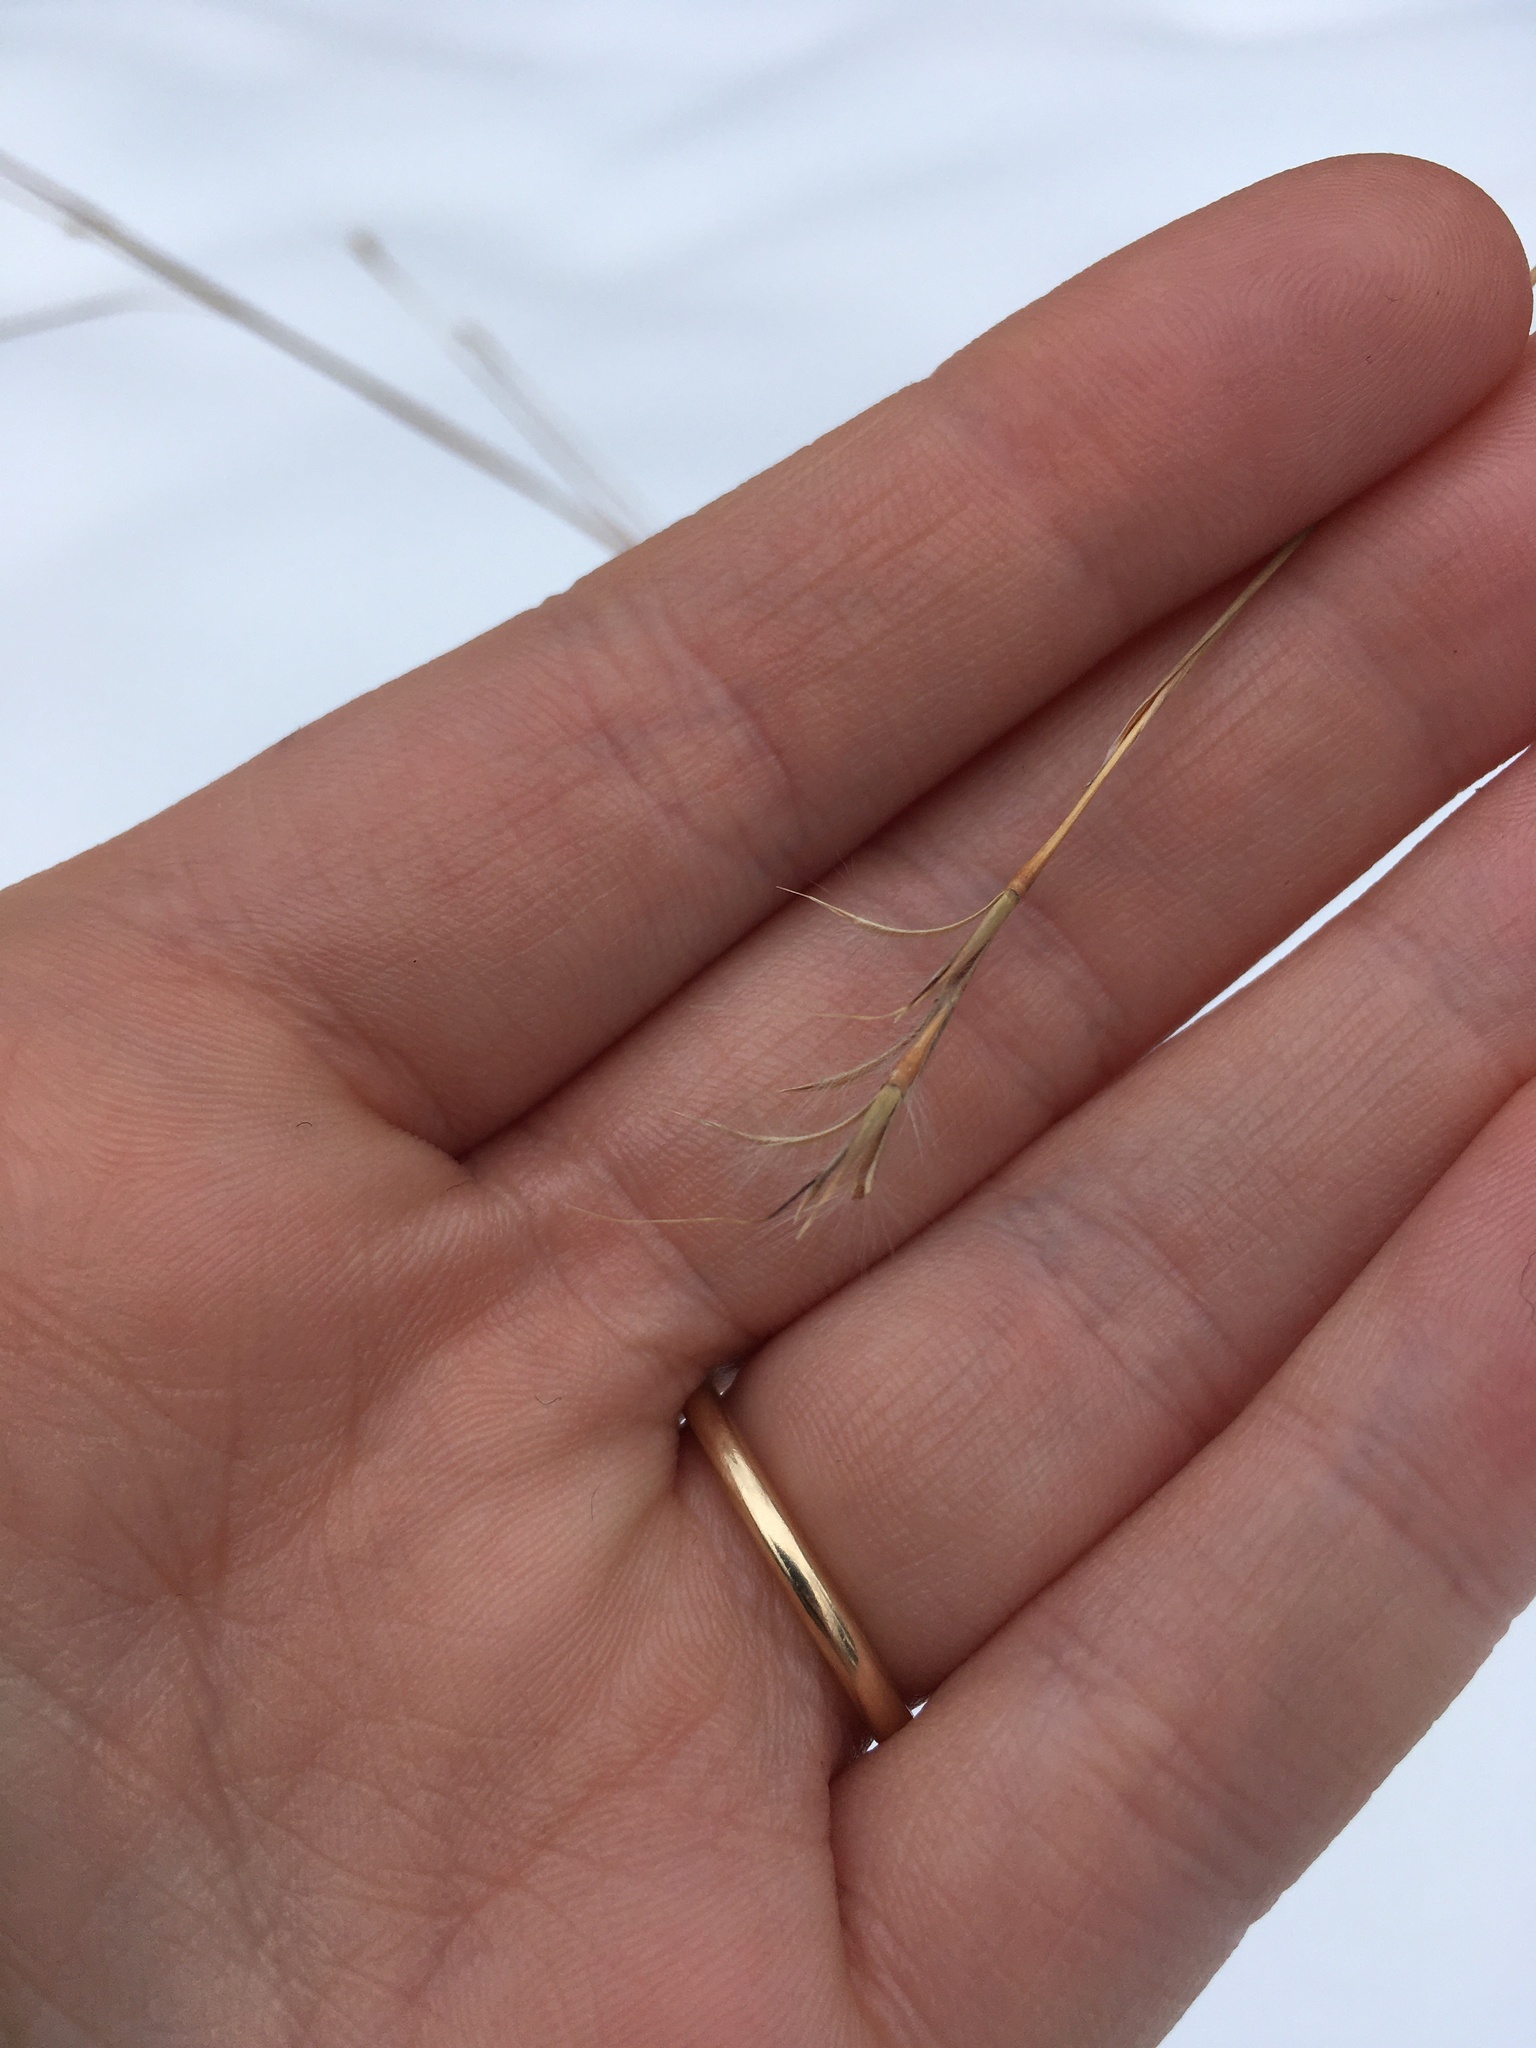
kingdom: Plantae
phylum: Tracheophyta
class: Liliopsida
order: Poales
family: Poaceae
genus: Schizachyrium
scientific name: Schizachyrium scoparium
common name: Little bluestem
